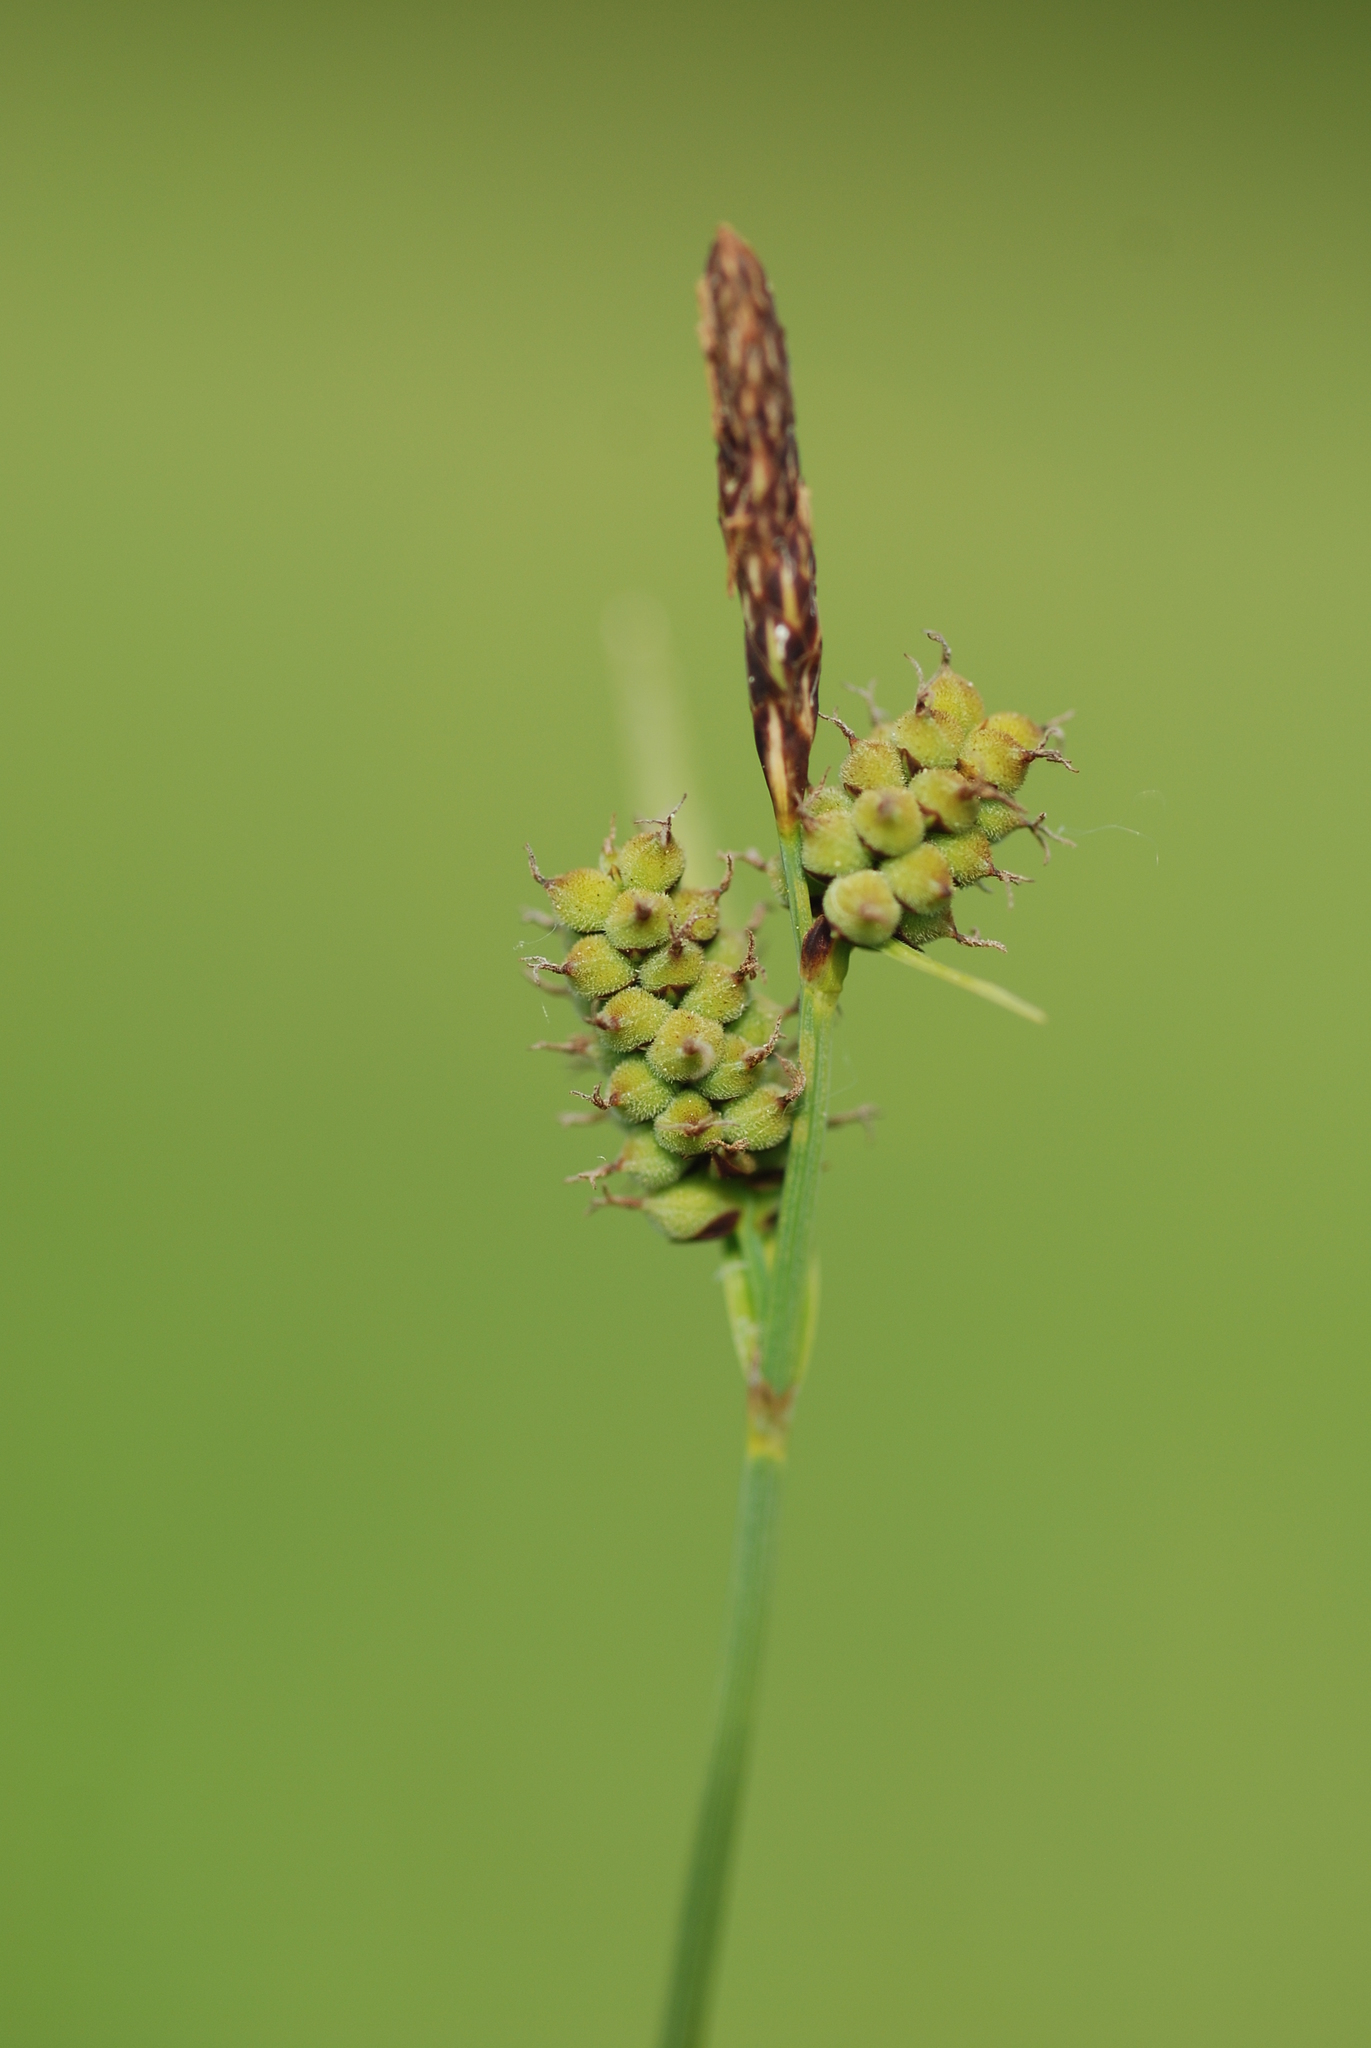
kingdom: Plantae
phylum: Tracheophyta
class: Liliopsida
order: Poales
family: Cyperaceae
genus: Carex
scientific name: Carex tomentosa
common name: Downy-fruited sedge
